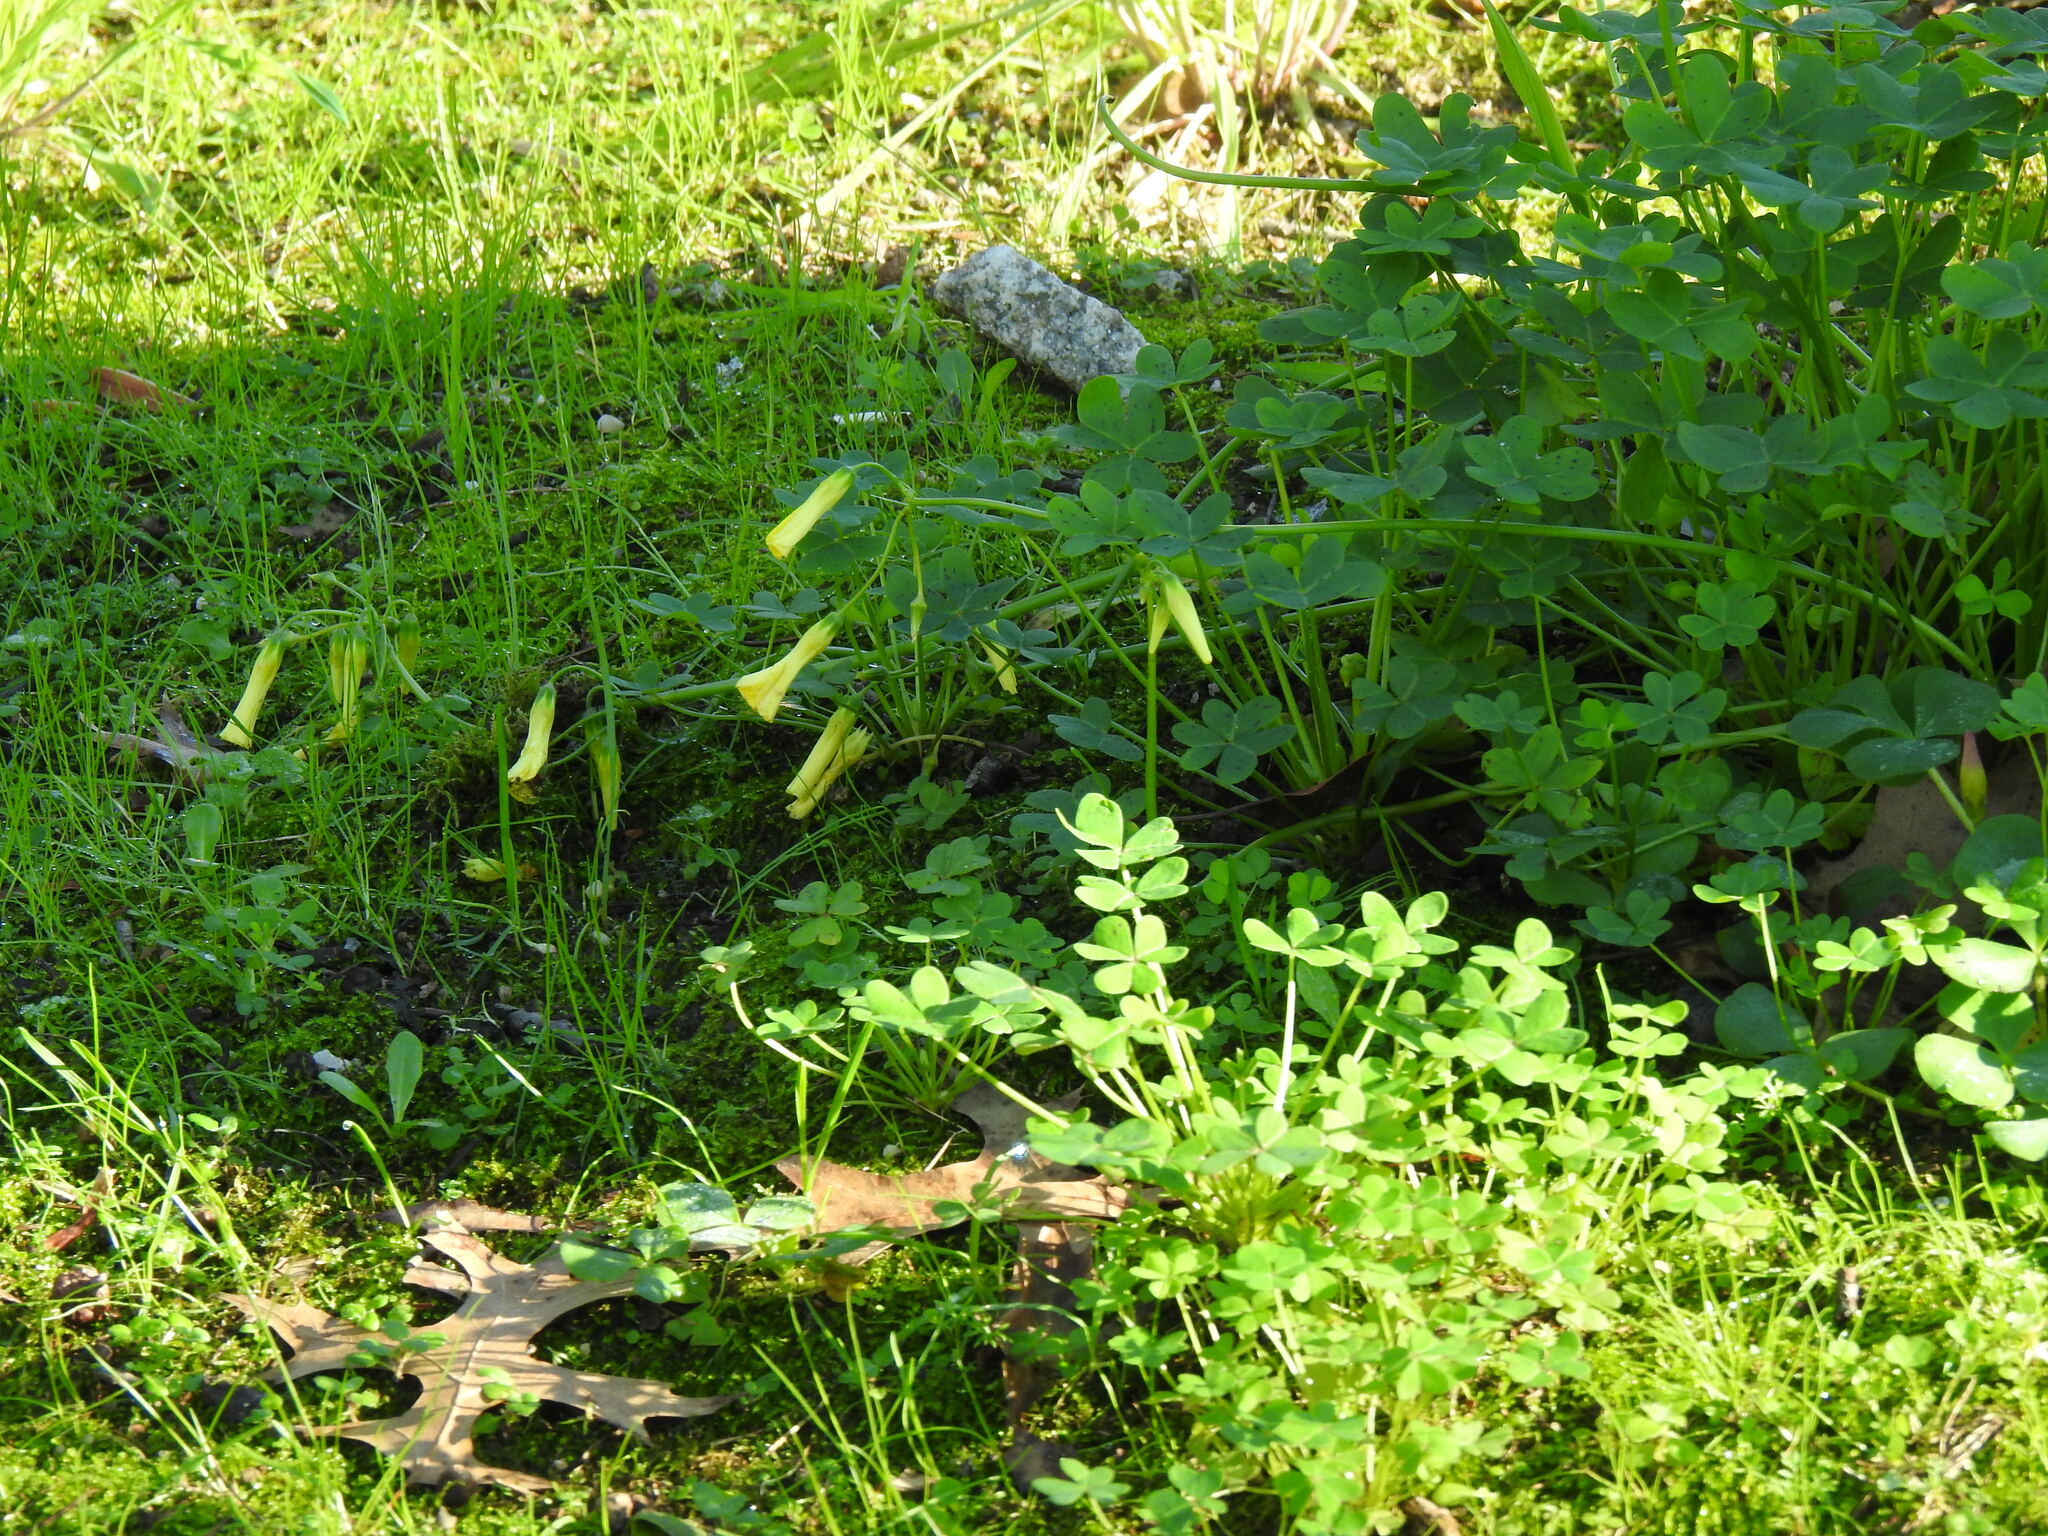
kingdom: Plantae
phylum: Tracheophyta
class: Magnoliopsida
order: Oxalidales
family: Oxalidaceae
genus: Oxalis
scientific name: Oxalis pes-caprae
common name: Bermuda-buttercup
